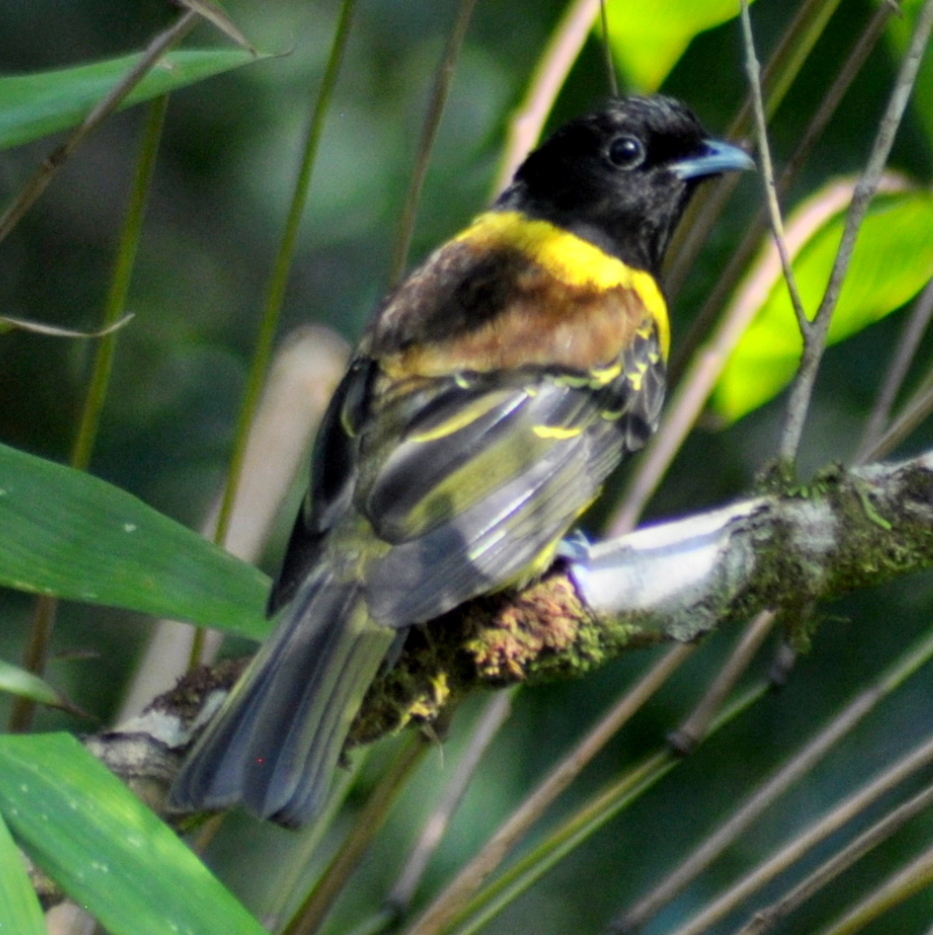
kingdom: Animalia
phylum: Chordata
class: Aves
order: Passeriformes
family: Cotingidae
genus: Carpornis
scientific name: Carpornis cucullata
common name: Hooded berryeater
